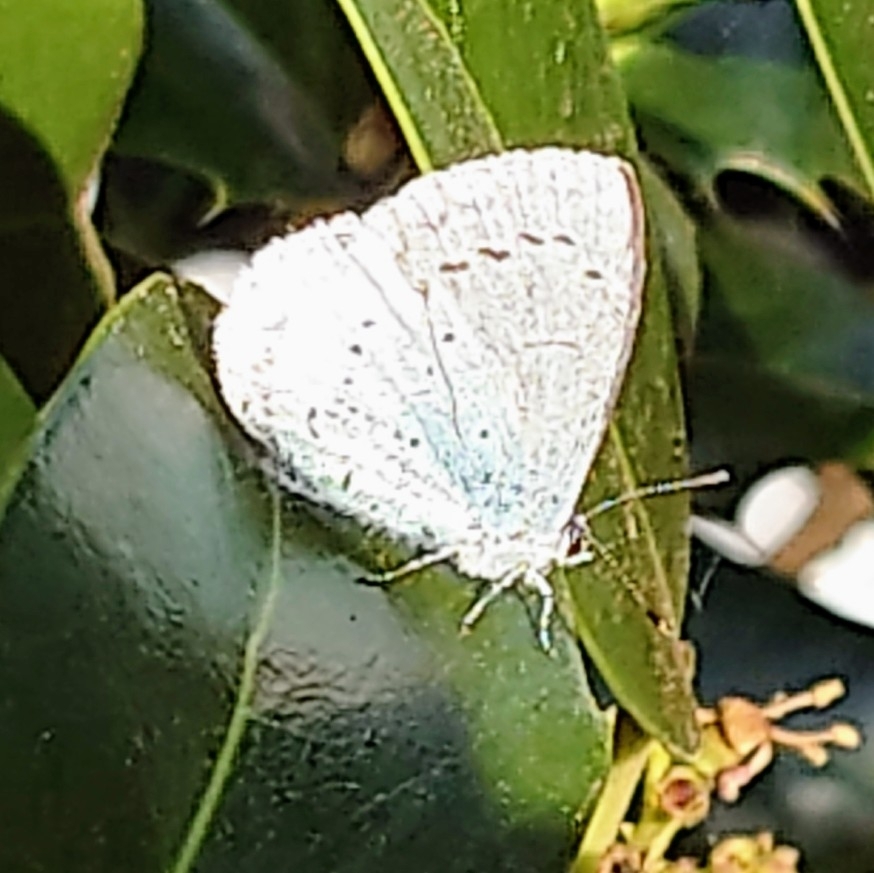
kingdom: Animalia
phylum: Arthropoda
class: Insecta
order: Lepidoptera
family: Lycaenidae
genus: Celastrina
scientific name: Celastrina argiolus
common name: Holly blue
